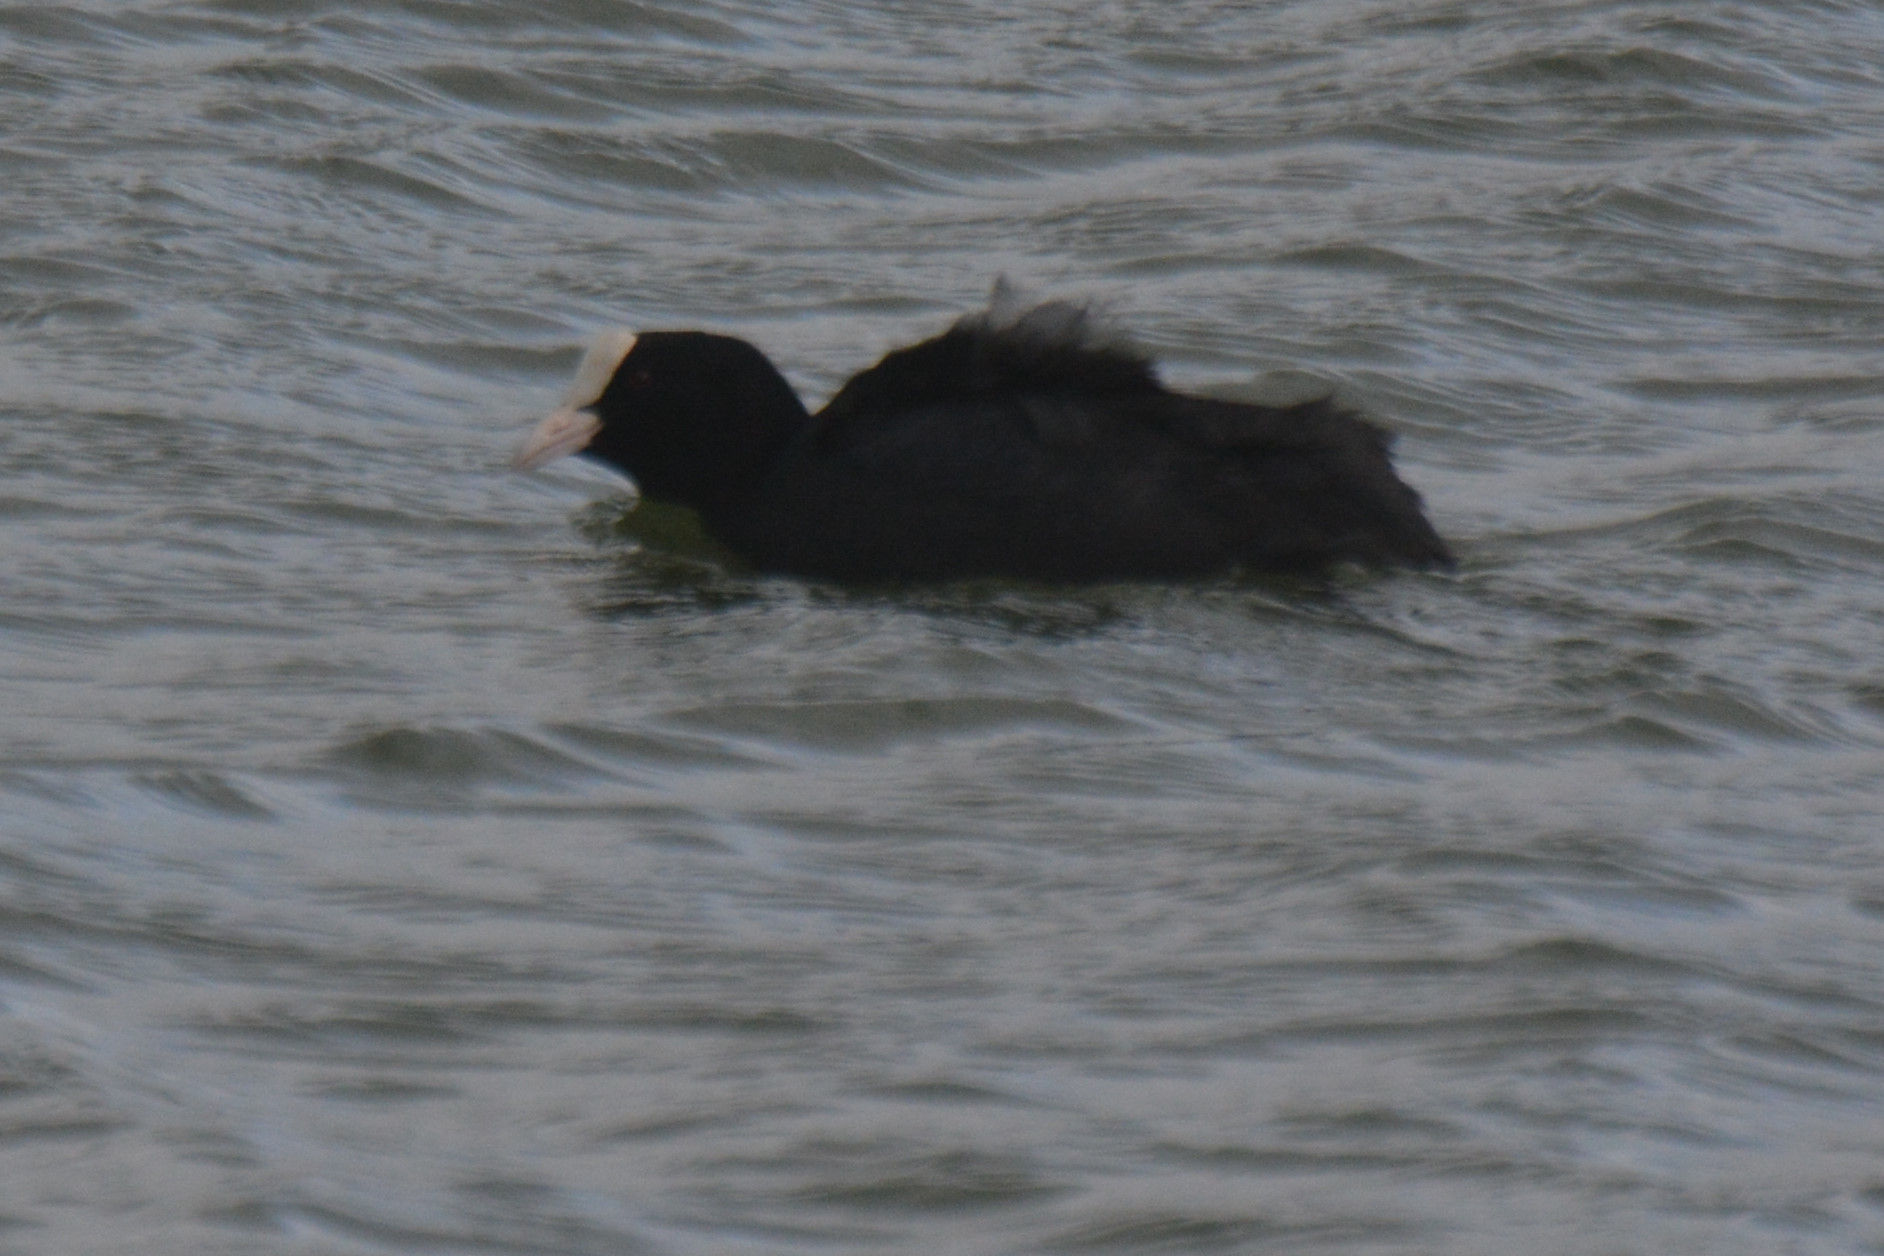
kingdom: Animalia
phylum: Chordata
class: Aves
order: Gruiformes
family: Rallidae
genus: Fulica
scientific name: Fulica atra
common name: Eurasian coot
